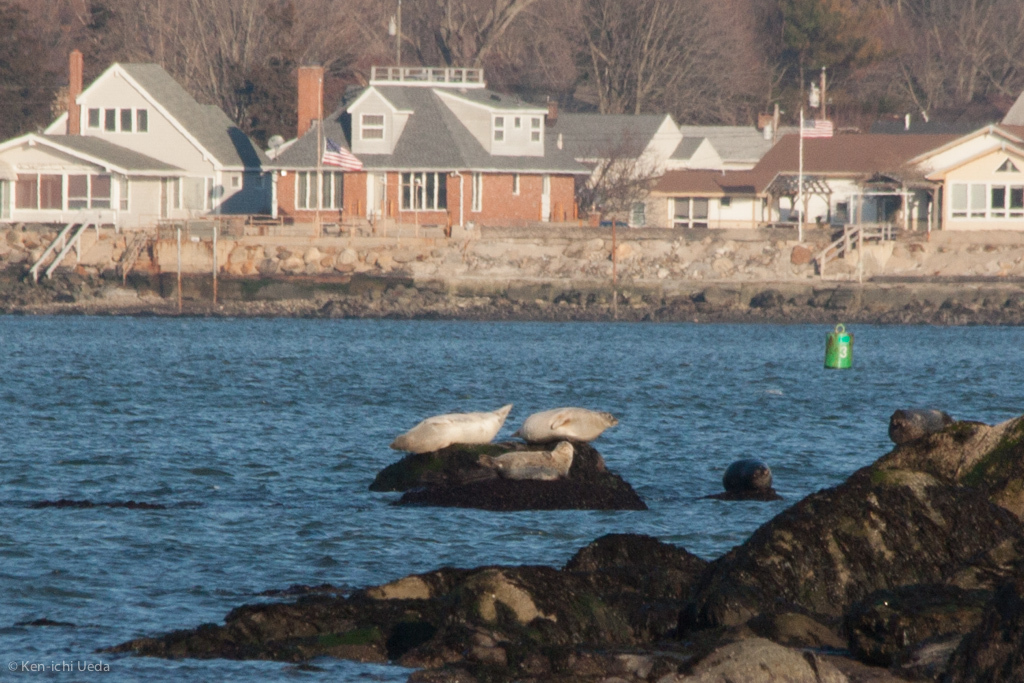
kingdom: Animalia
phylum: Chordata
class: Mammalia
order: Carnivora
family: Phocidae
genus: Phoca
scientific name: Phoca vitulina
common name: Harbor seal
